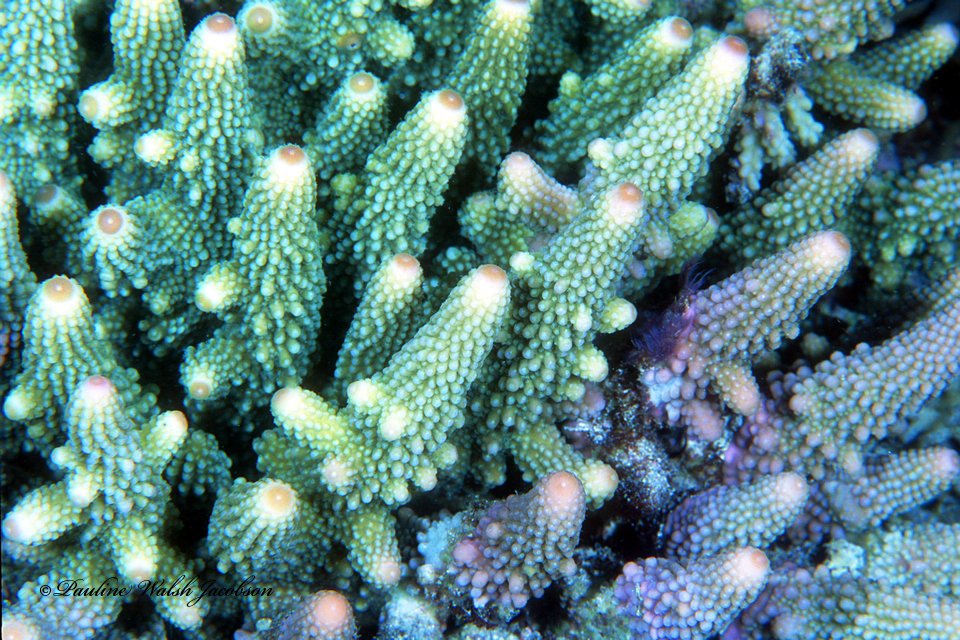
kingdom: Animalia
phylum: Cnidaria
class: Anthozoa
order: Scleractinia
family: Acroporidae
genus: Acropora
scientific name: Acropora humilis
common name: Finger coral
